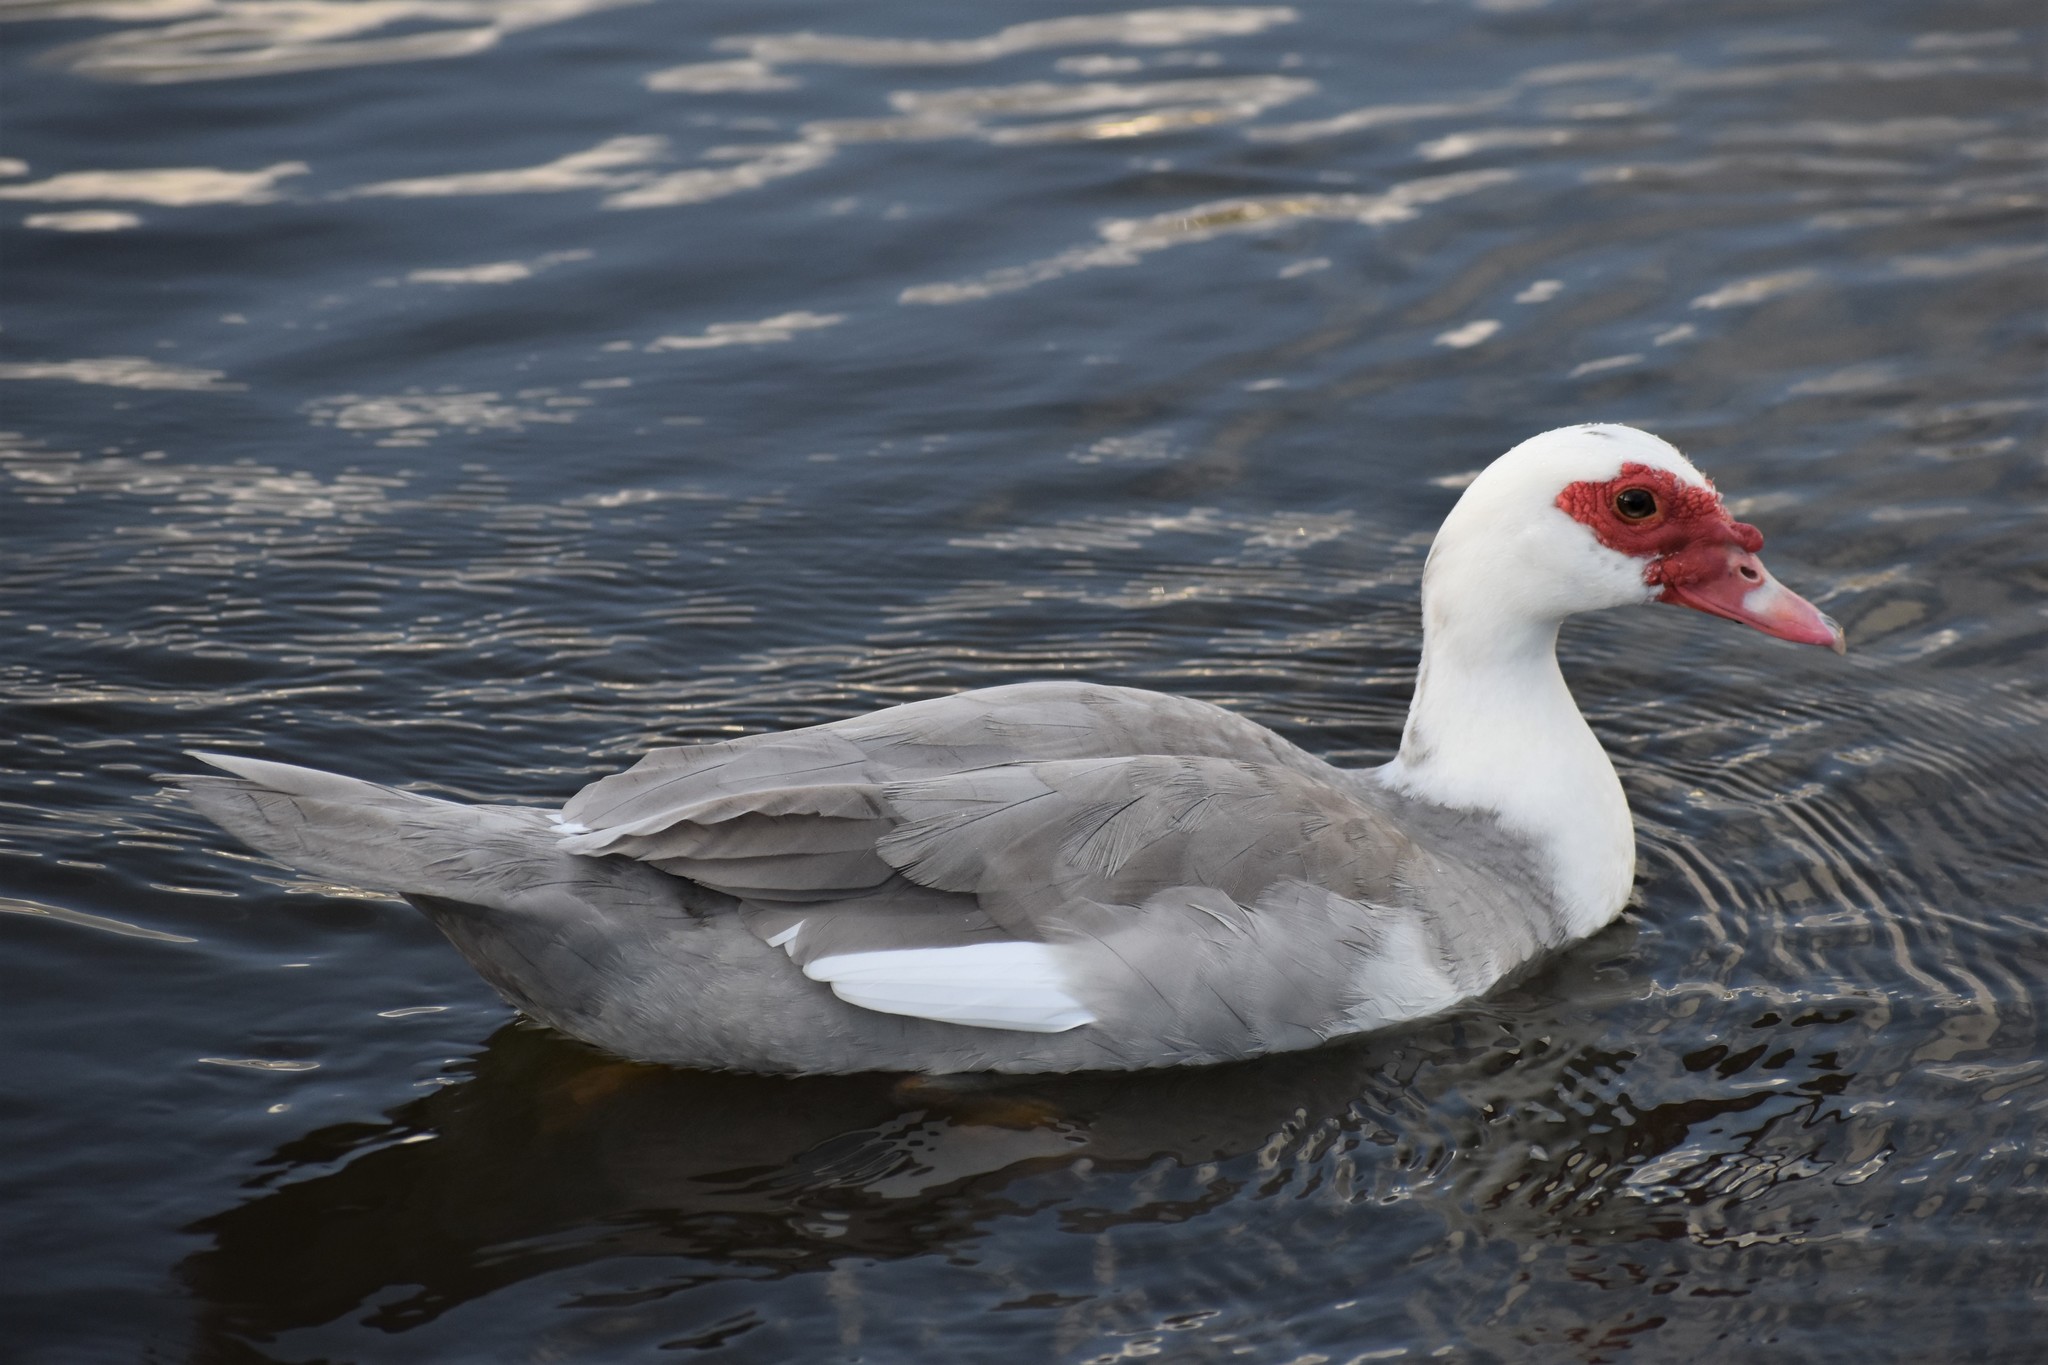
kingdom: Animalia
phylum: Chordata
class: Aves
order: Anseriformes
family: Anatidae
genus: Cairina
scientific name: Cairina moschata
